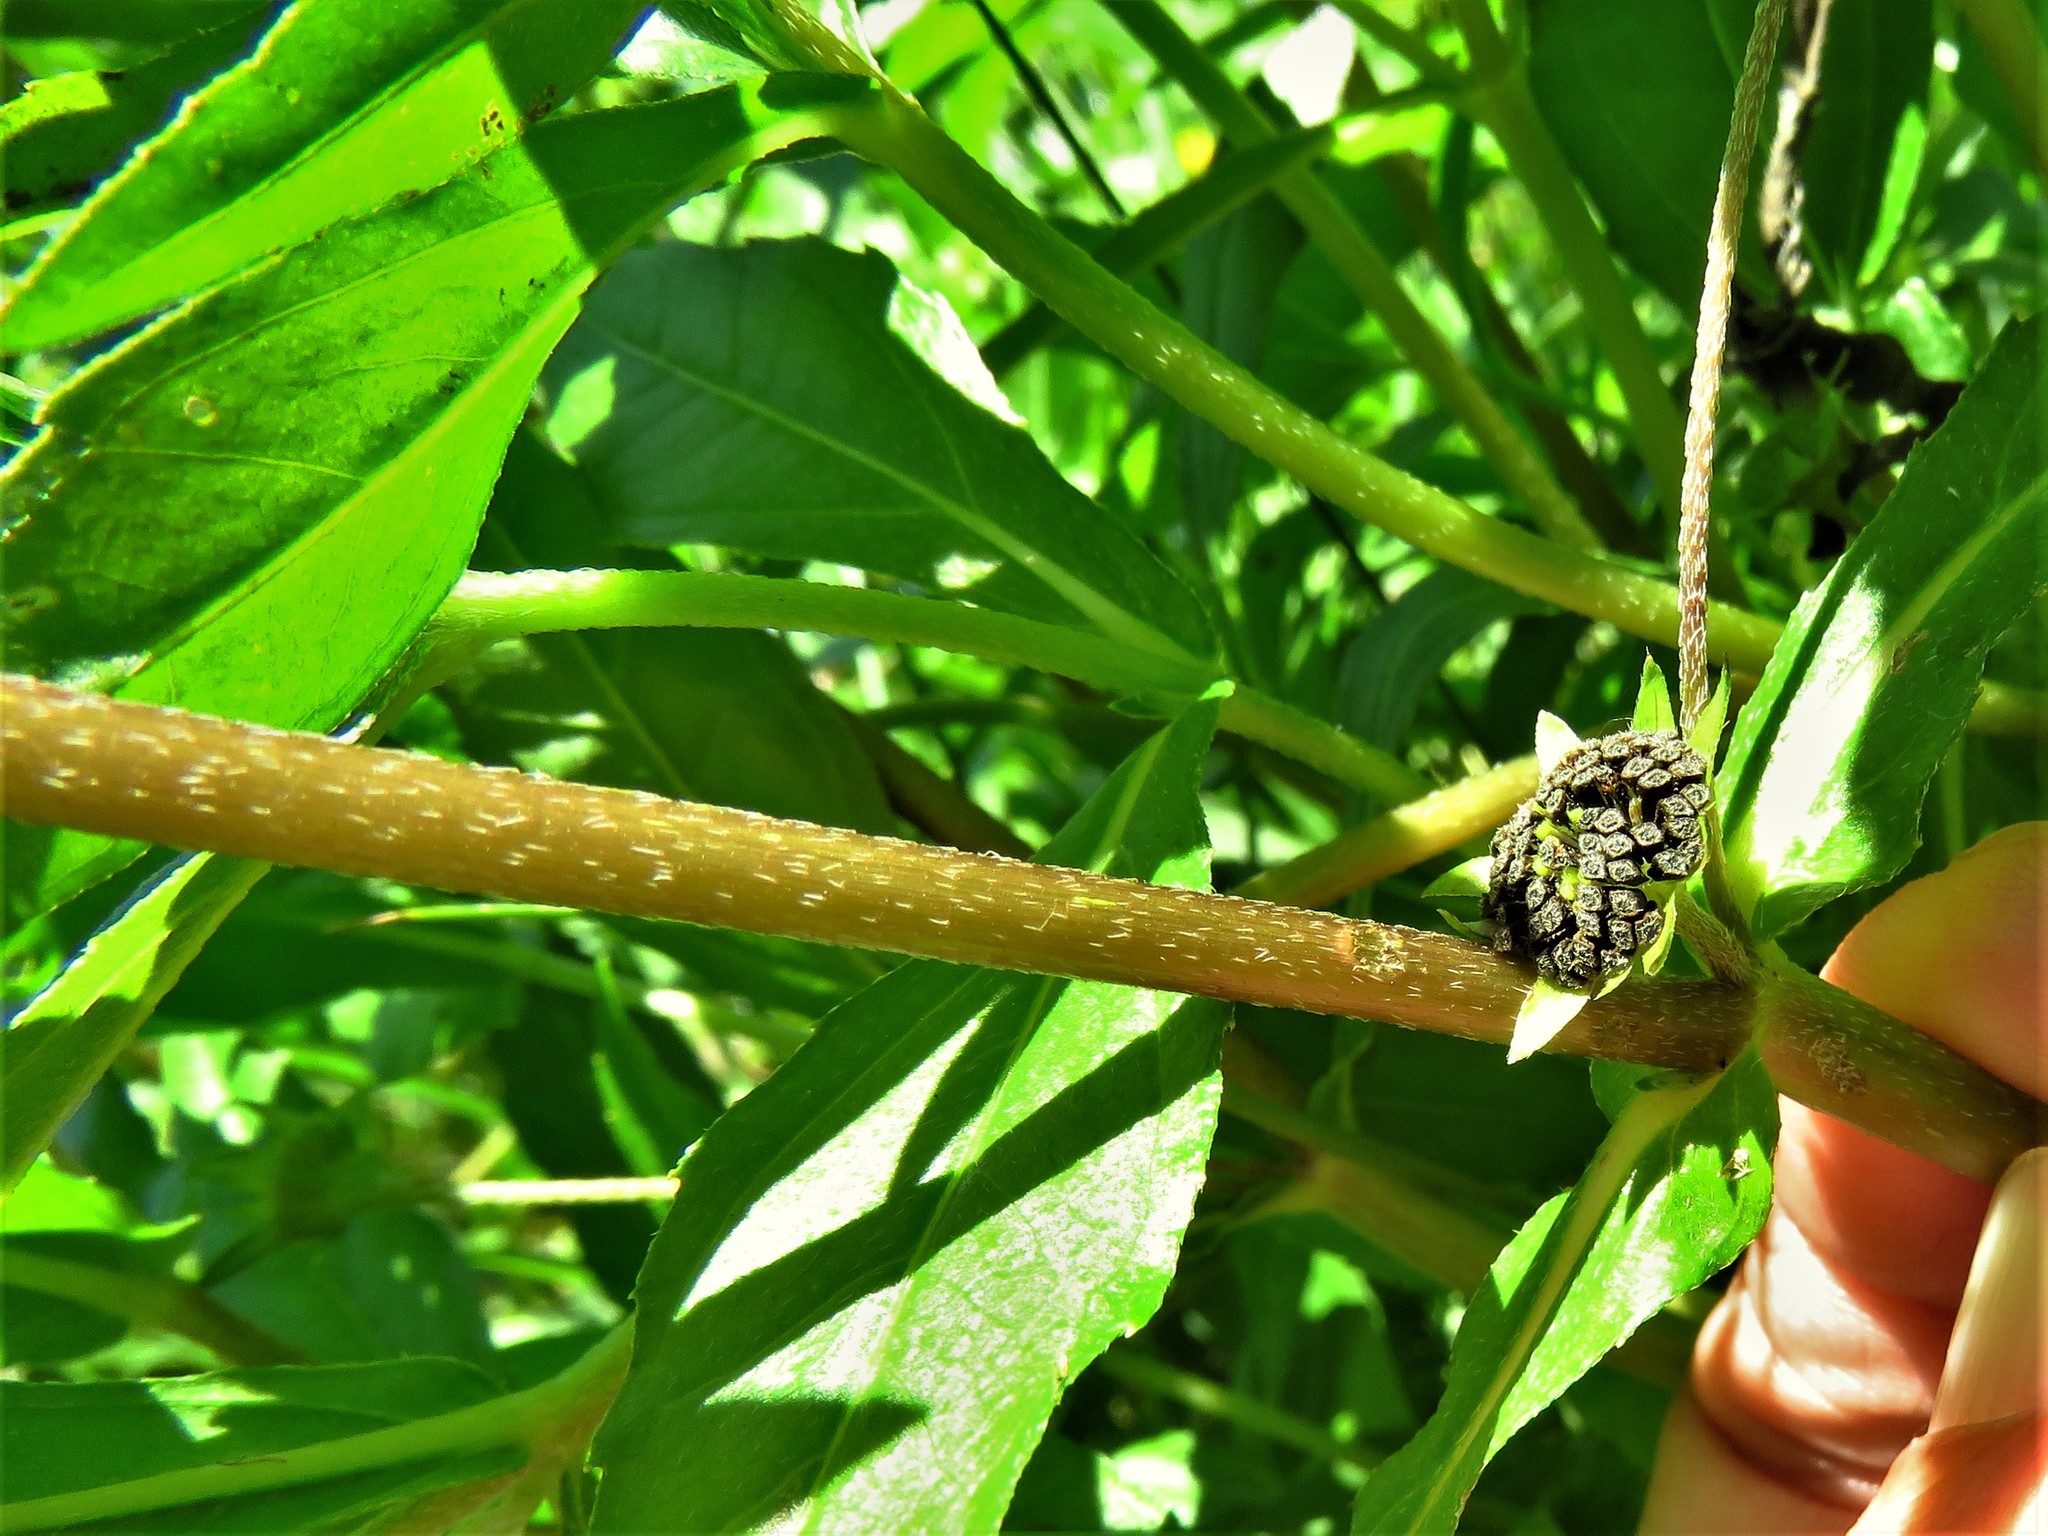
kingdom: Plantae
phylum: Tracheophyta
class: Magnoliopsida
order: Asterales
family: Asteraceae
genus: Eclipta
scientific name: Eclipta prostrata
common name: False daisy
